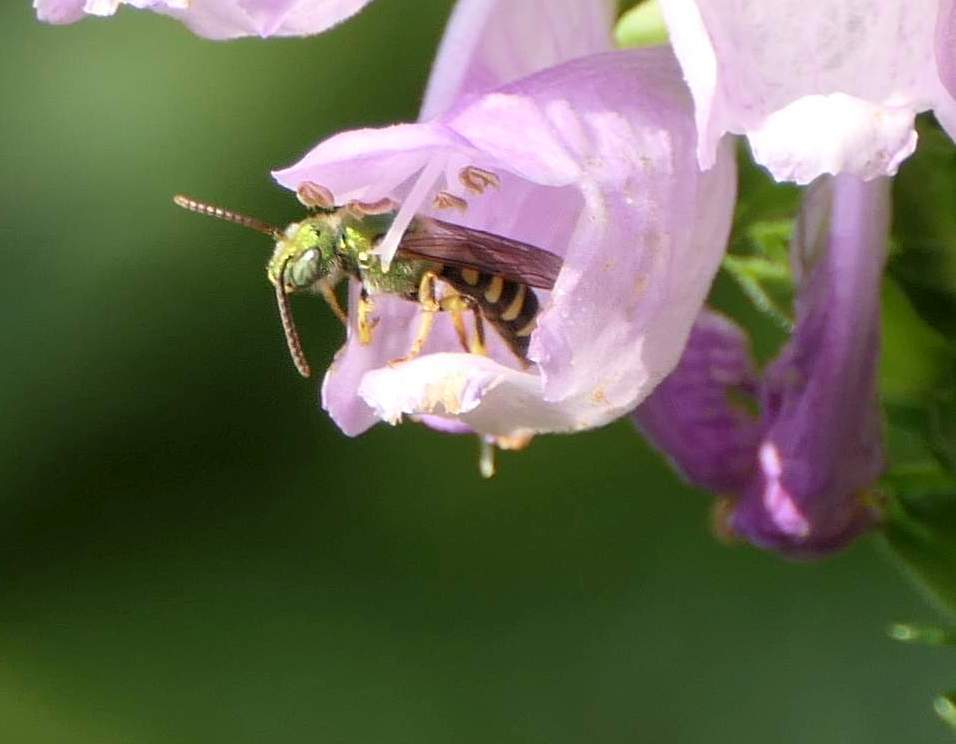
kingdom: Animalia
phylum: Arthropoda
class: Insecta
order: Hymenoptera
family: Halictidae
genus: Agapostemon
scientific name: Agapostemon virescens
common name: Bicolored striped sweat bee
